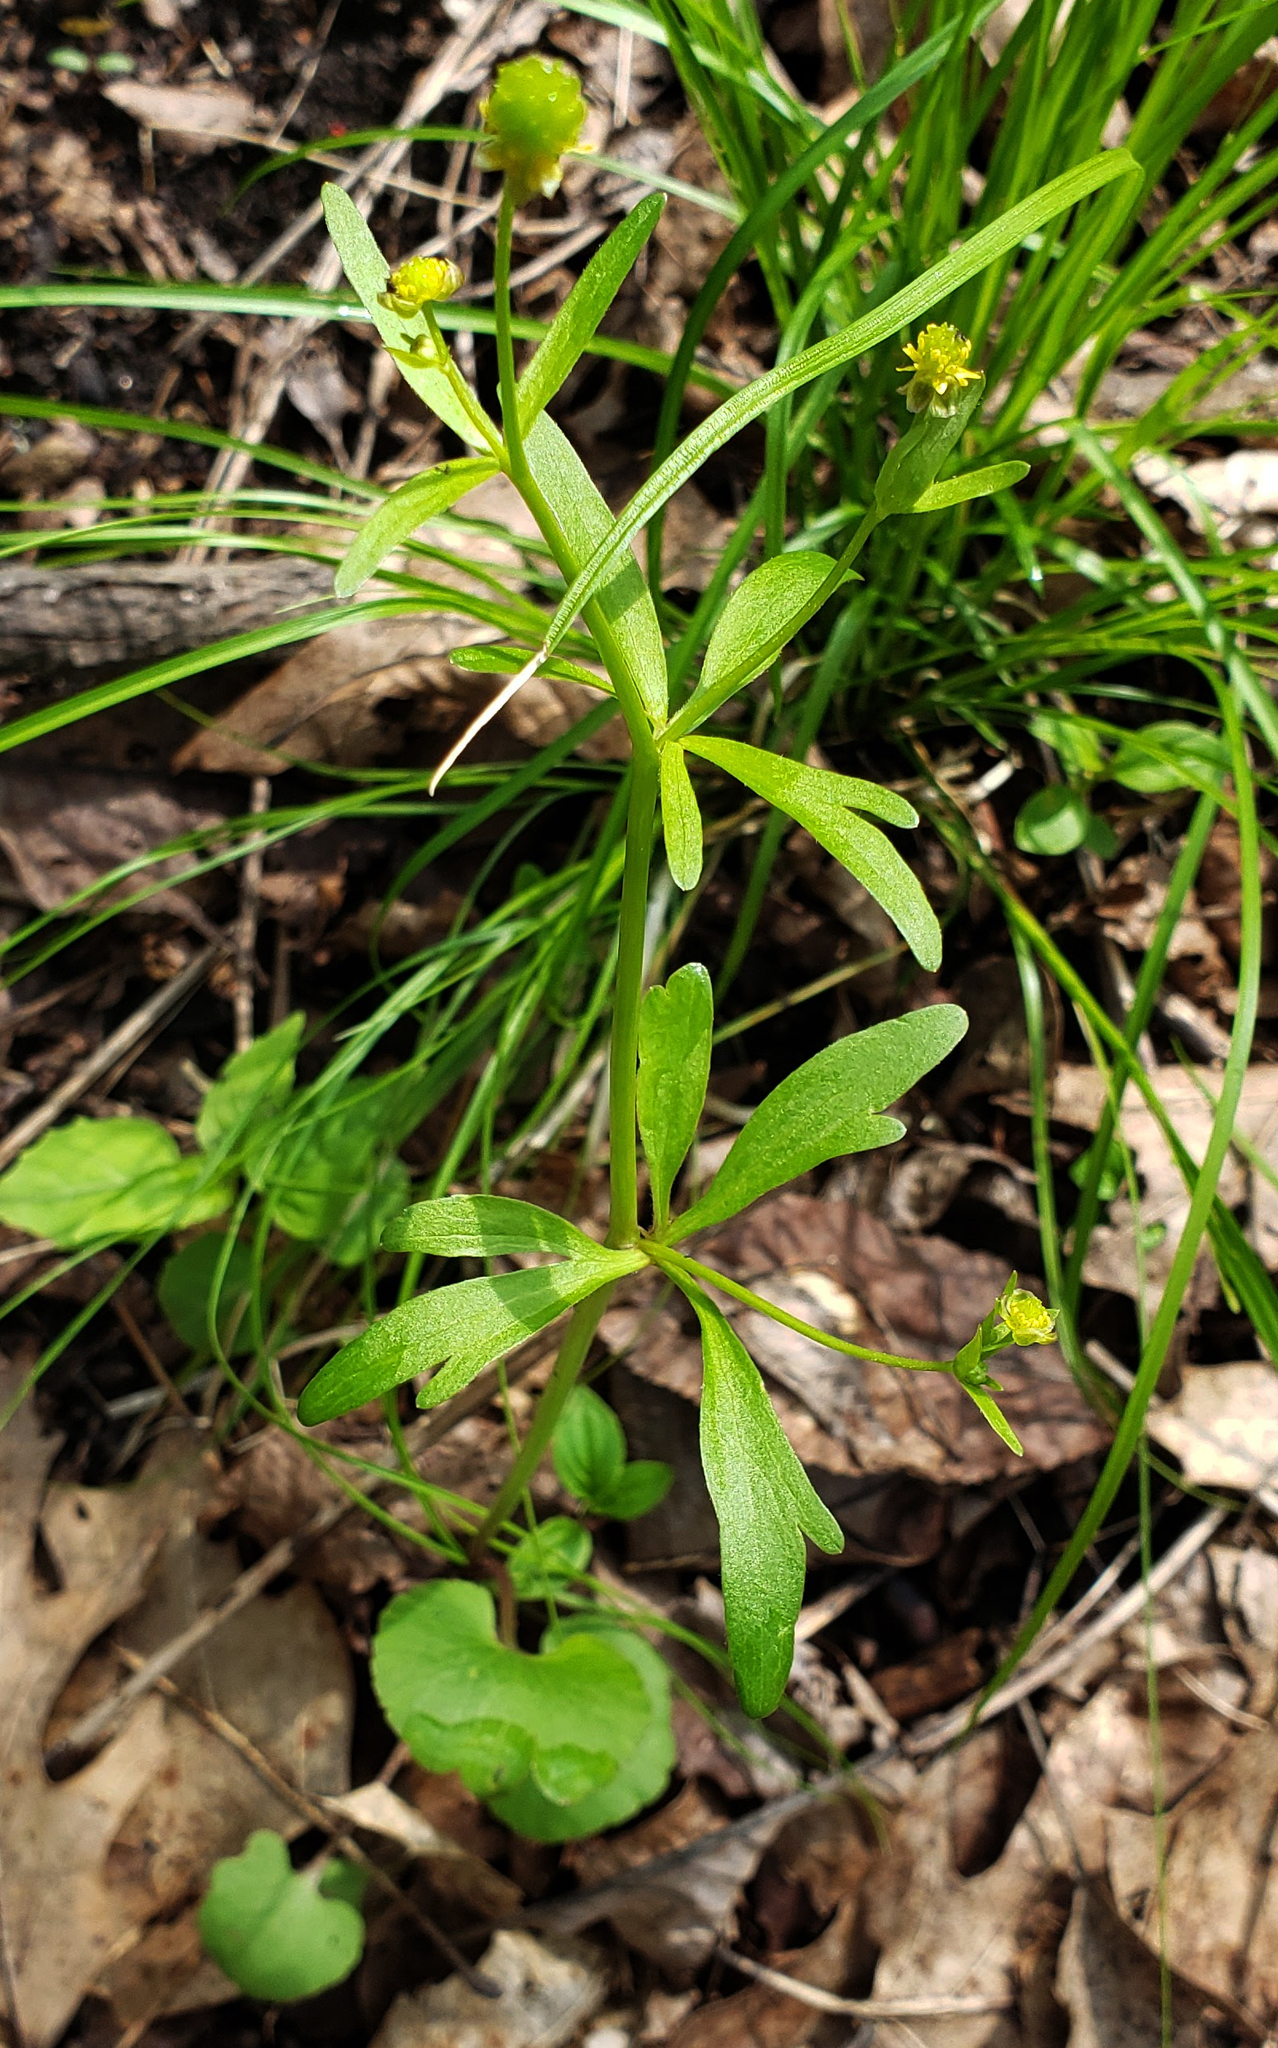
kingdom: Plantae
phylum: Tracheophyta
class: Magnoliopsida
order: Ranunculales
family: Ranunculaceae
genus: Ranunculus
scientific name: Ranunculus abortivus
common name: Early wood buttercup
